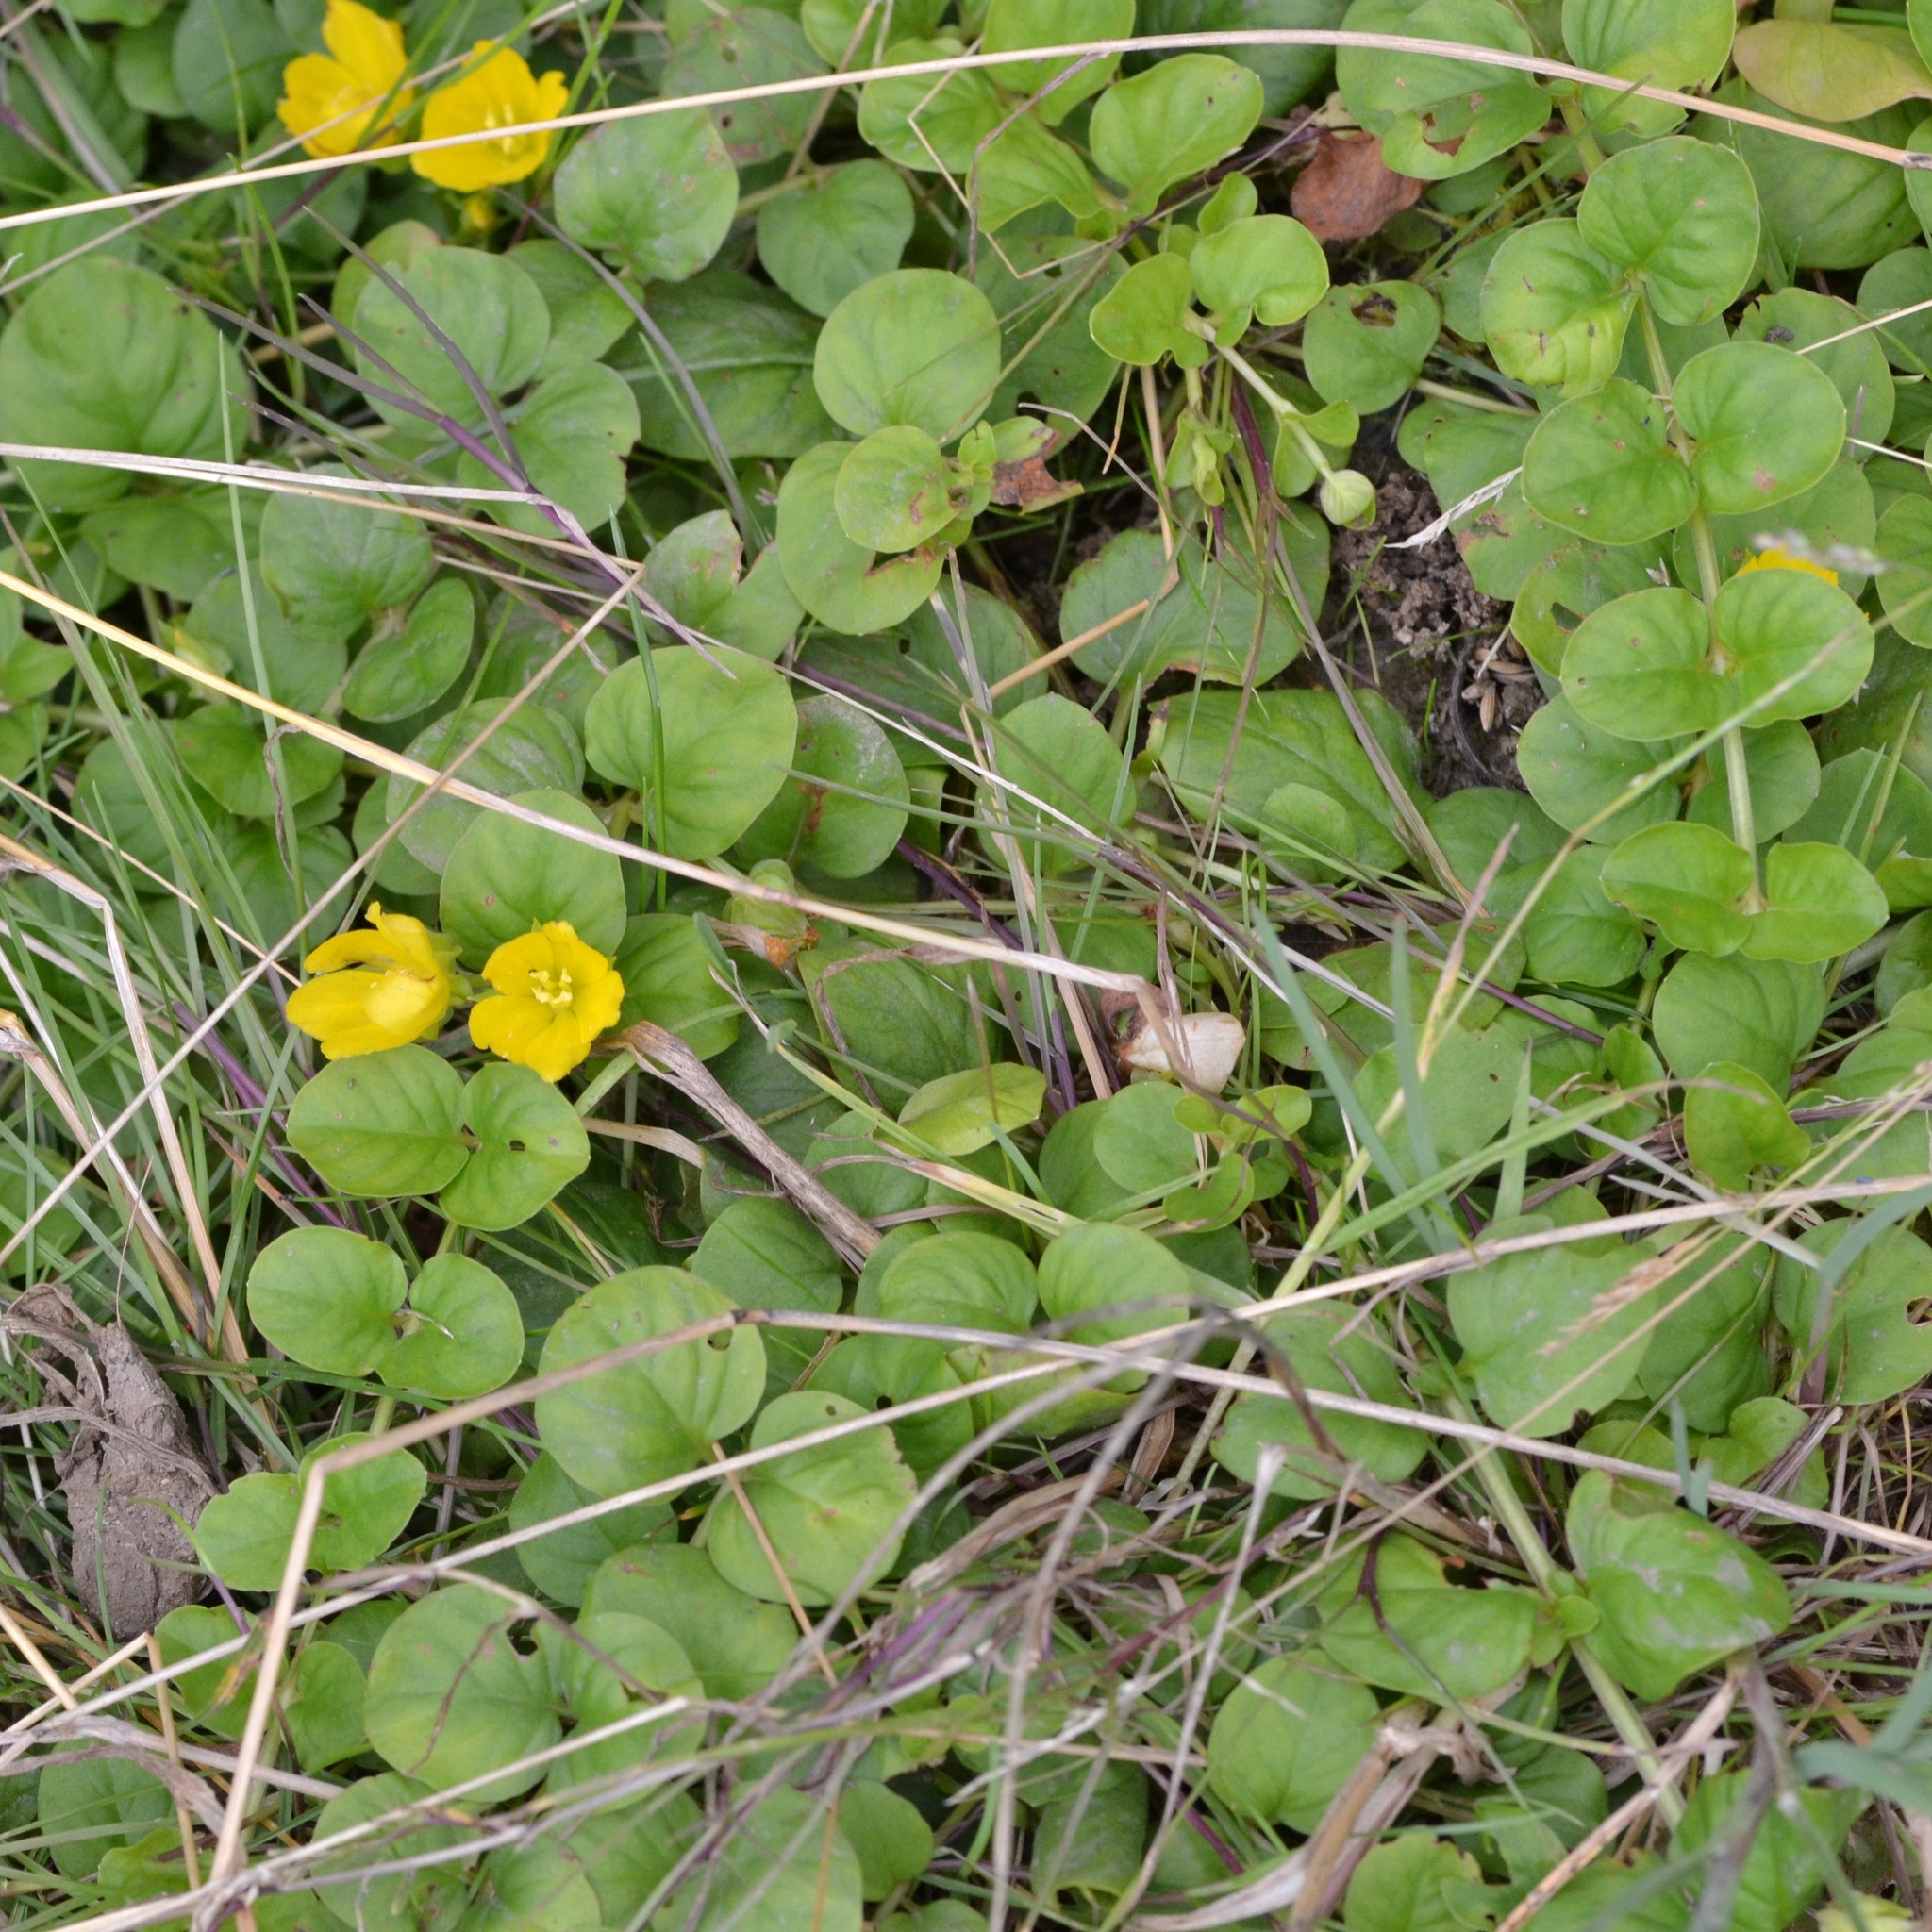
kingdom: Plantae
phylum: Tracheophyta
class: Magnoliopsida
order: Ericales
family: Primulaceae
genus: Lysimachia
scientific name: Lysimachia nummularia
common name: Moneywort
